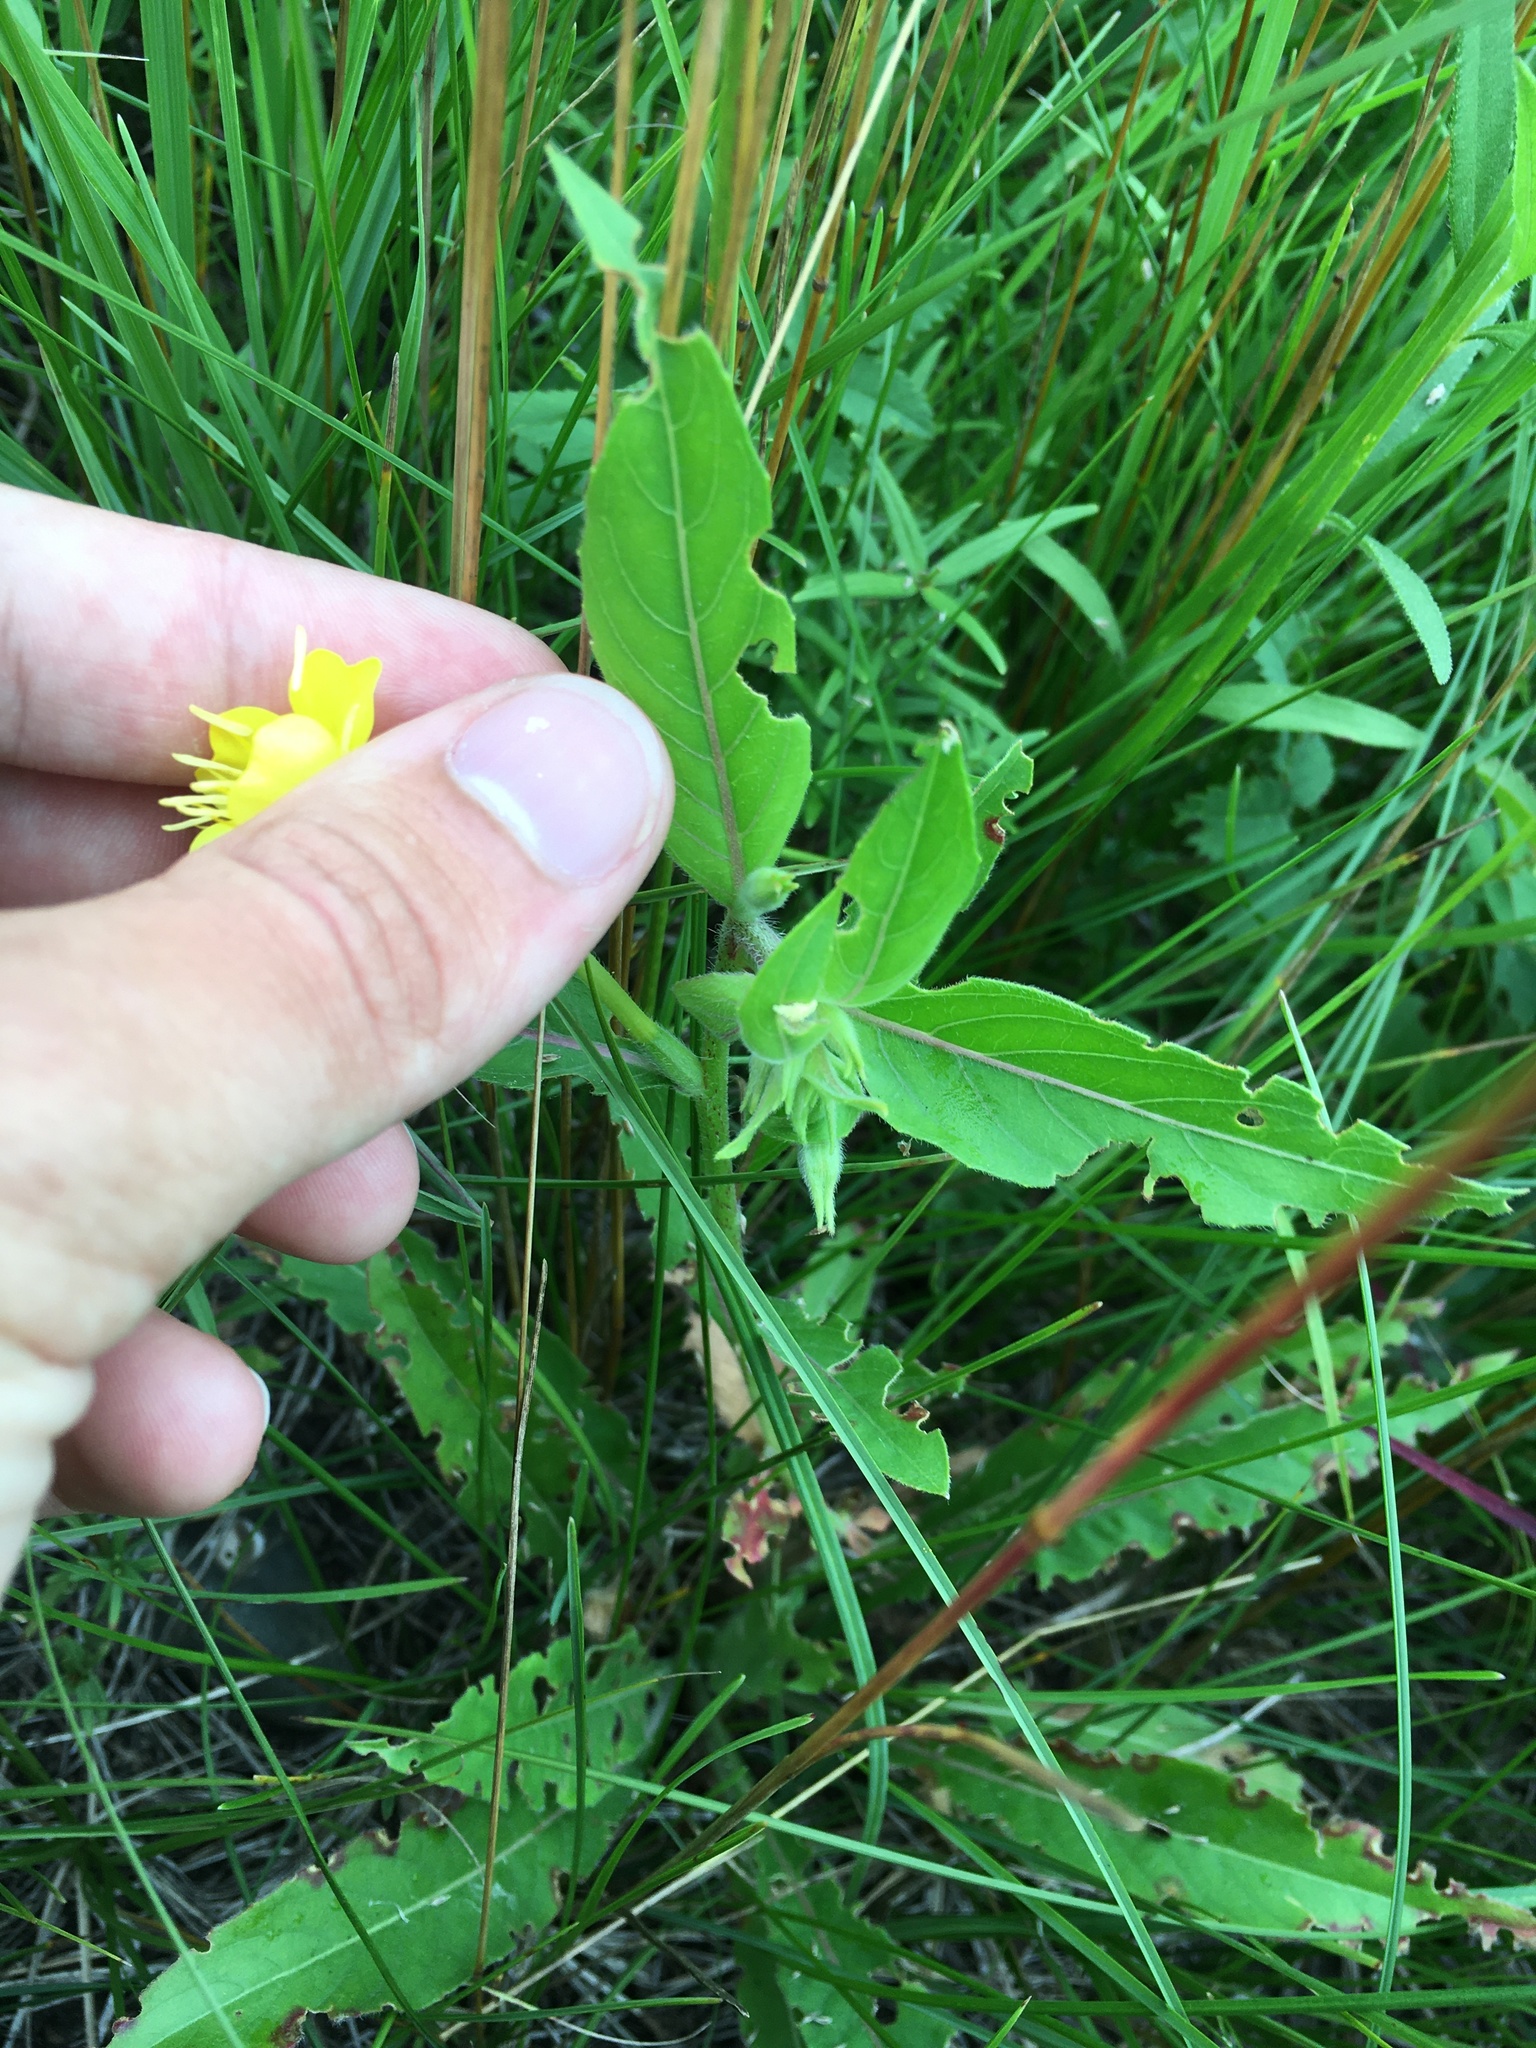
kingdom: Plantae
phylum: Tracheophyta
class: Magnoliopsida
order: Myrtales
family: Onagraceae
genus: Oenothera
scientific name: Oenothera parviflora
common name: Least evening-primrose
